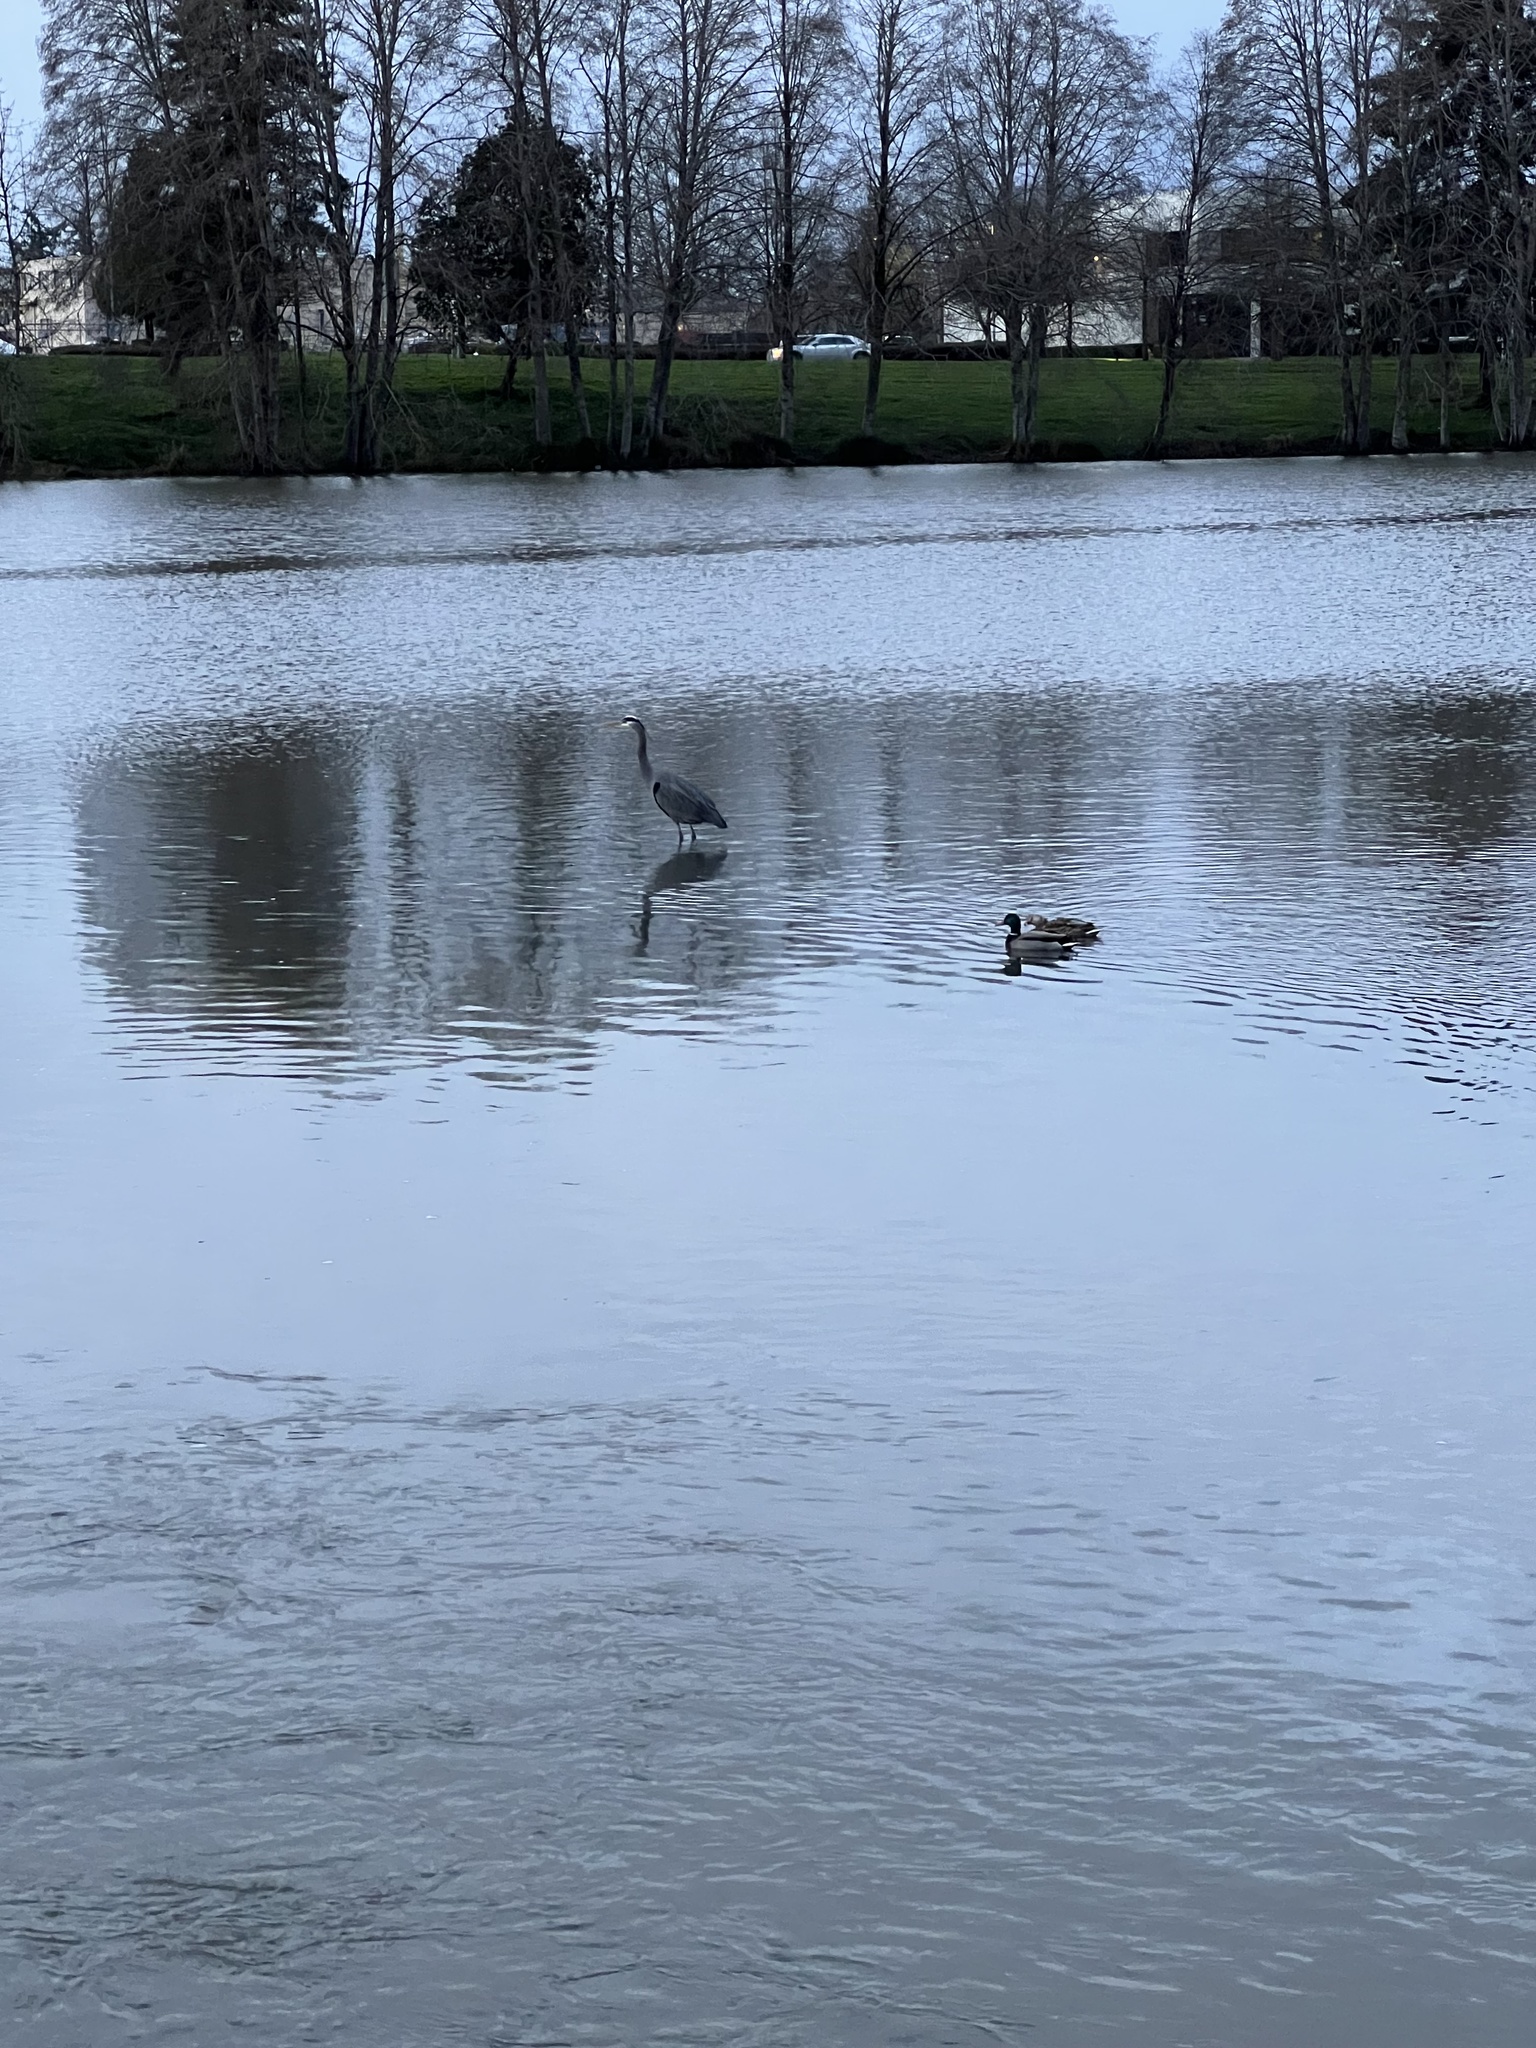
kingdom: Animalia
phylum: Chordata
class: Aves
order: Pelecaniformes
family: Ardeidae
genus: Ardea
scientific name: Ardea herodias
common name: Great blue heron
